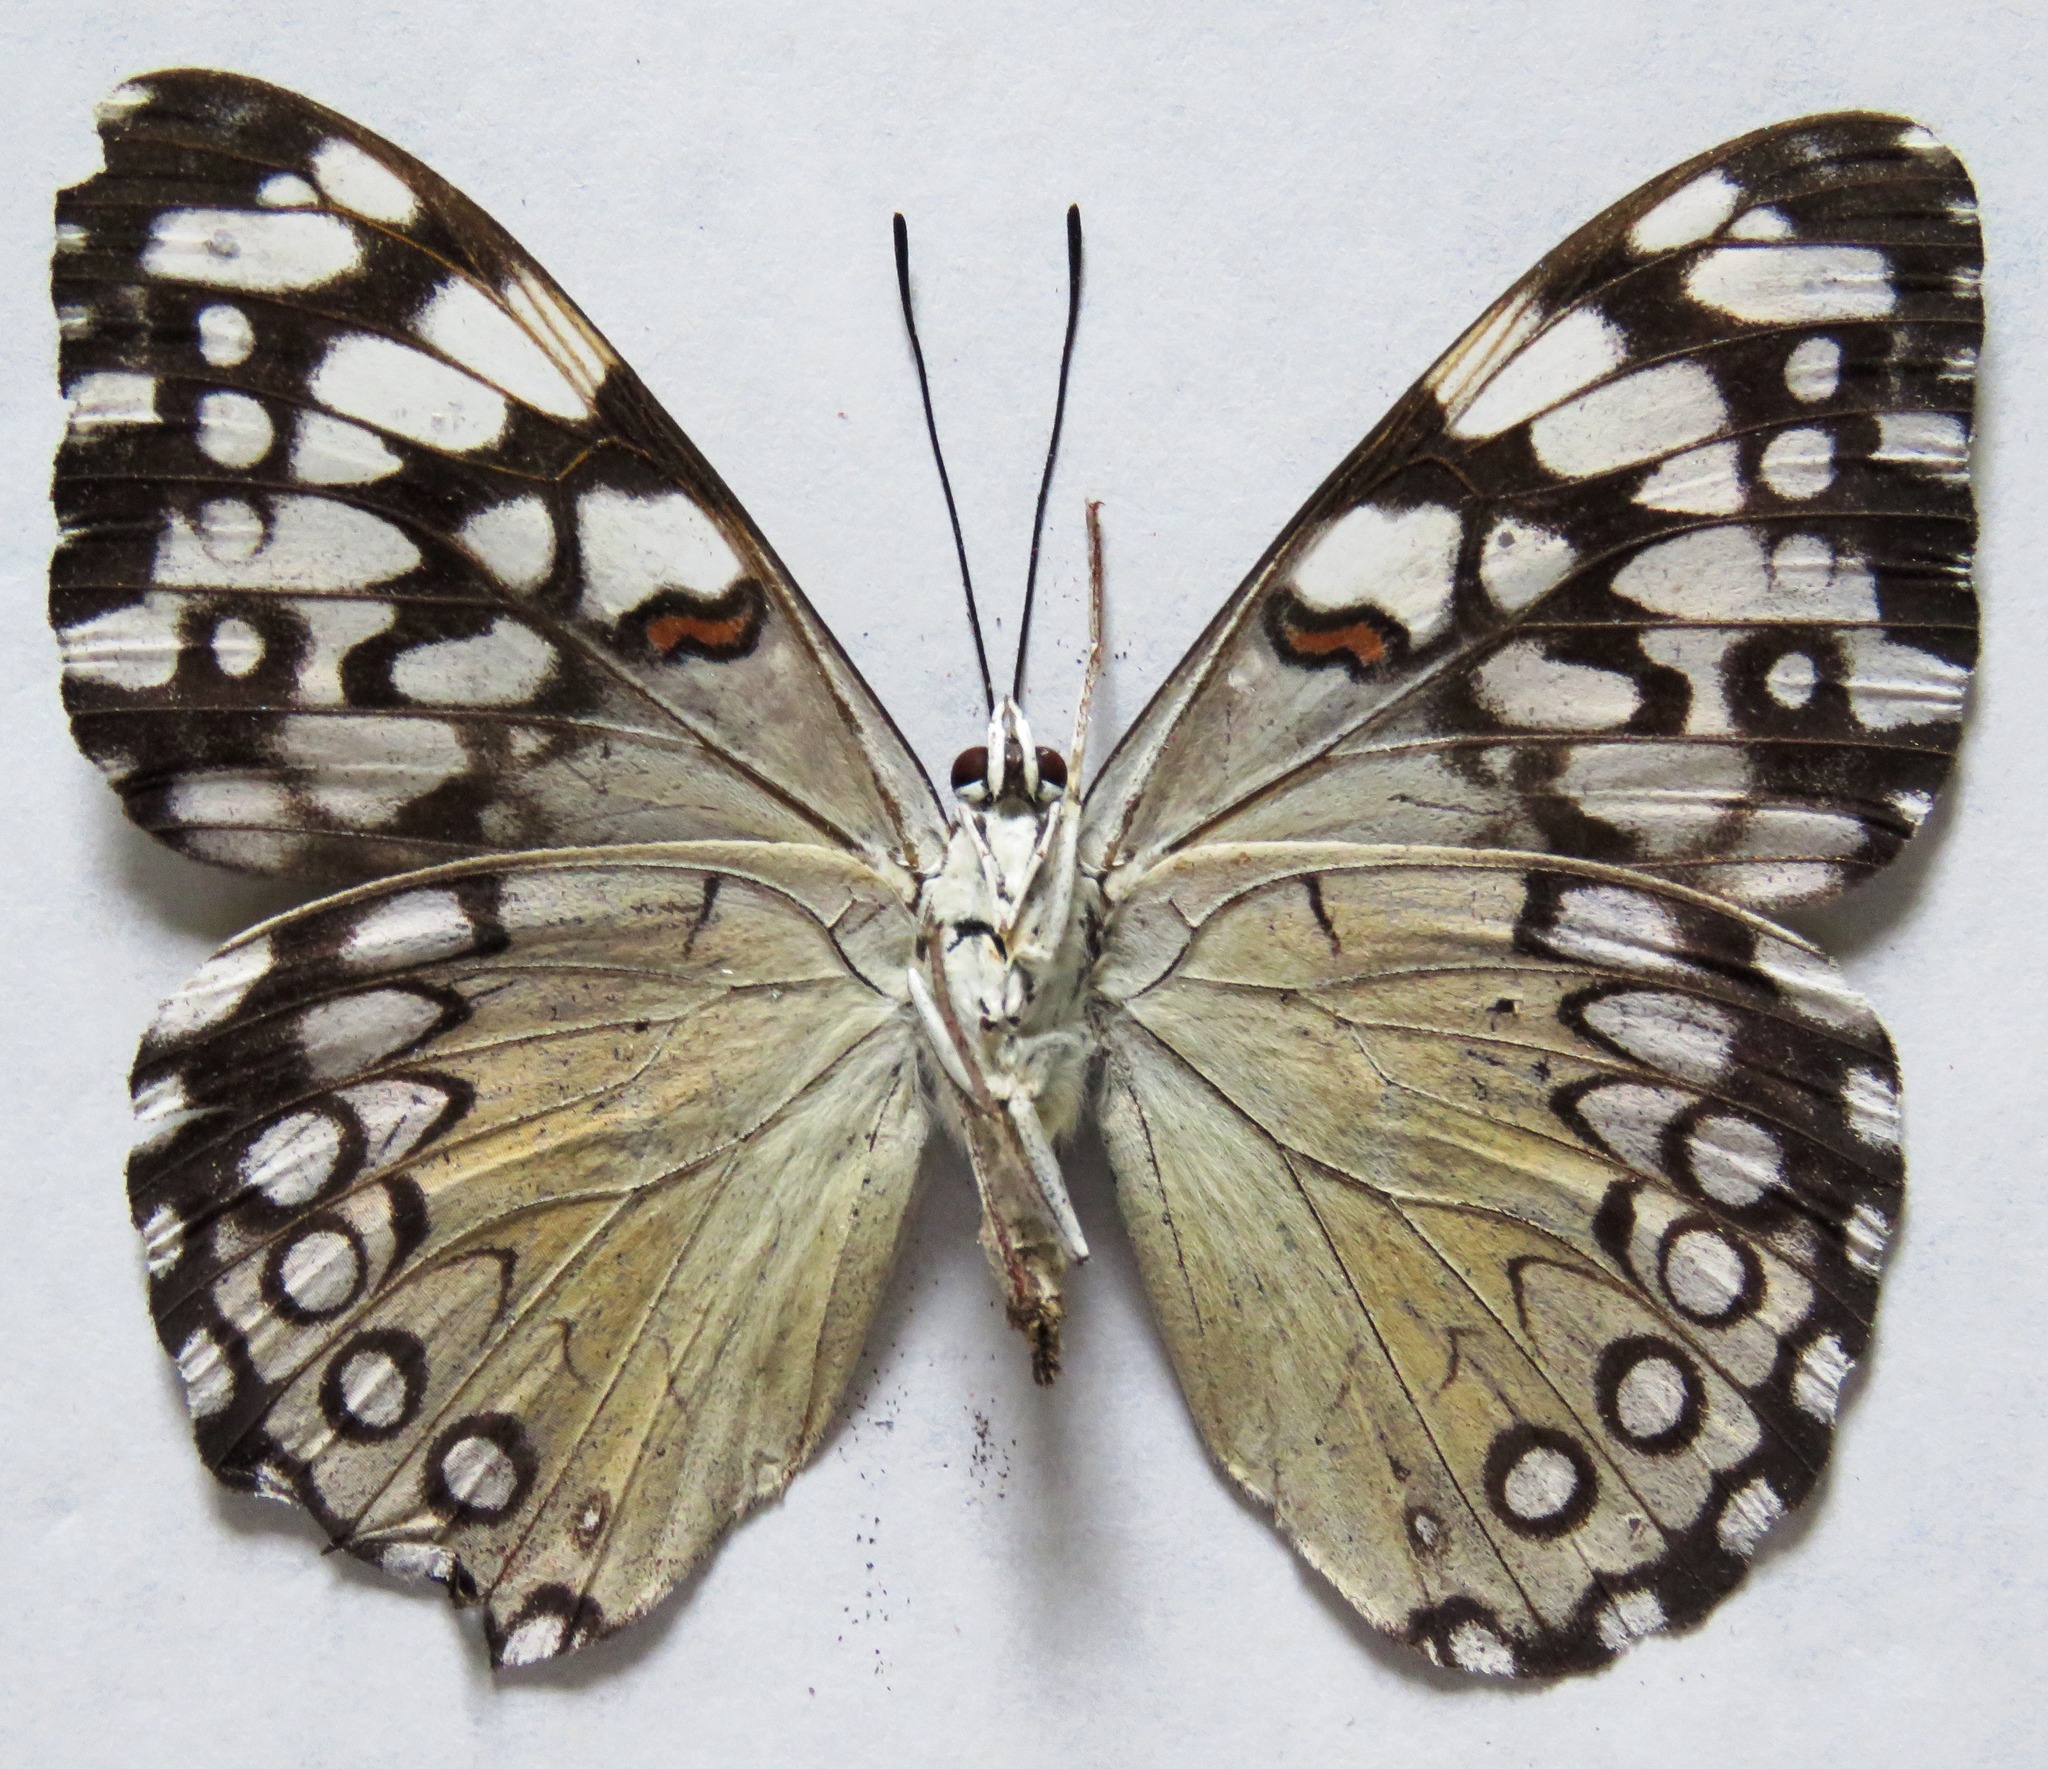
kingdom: Animalia
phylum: Arthropoda
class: Insecta
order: Lepidoptera
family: Nymphalidae
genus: Hamadryas
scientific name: Hamadryas feronia
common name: Variable cracker
